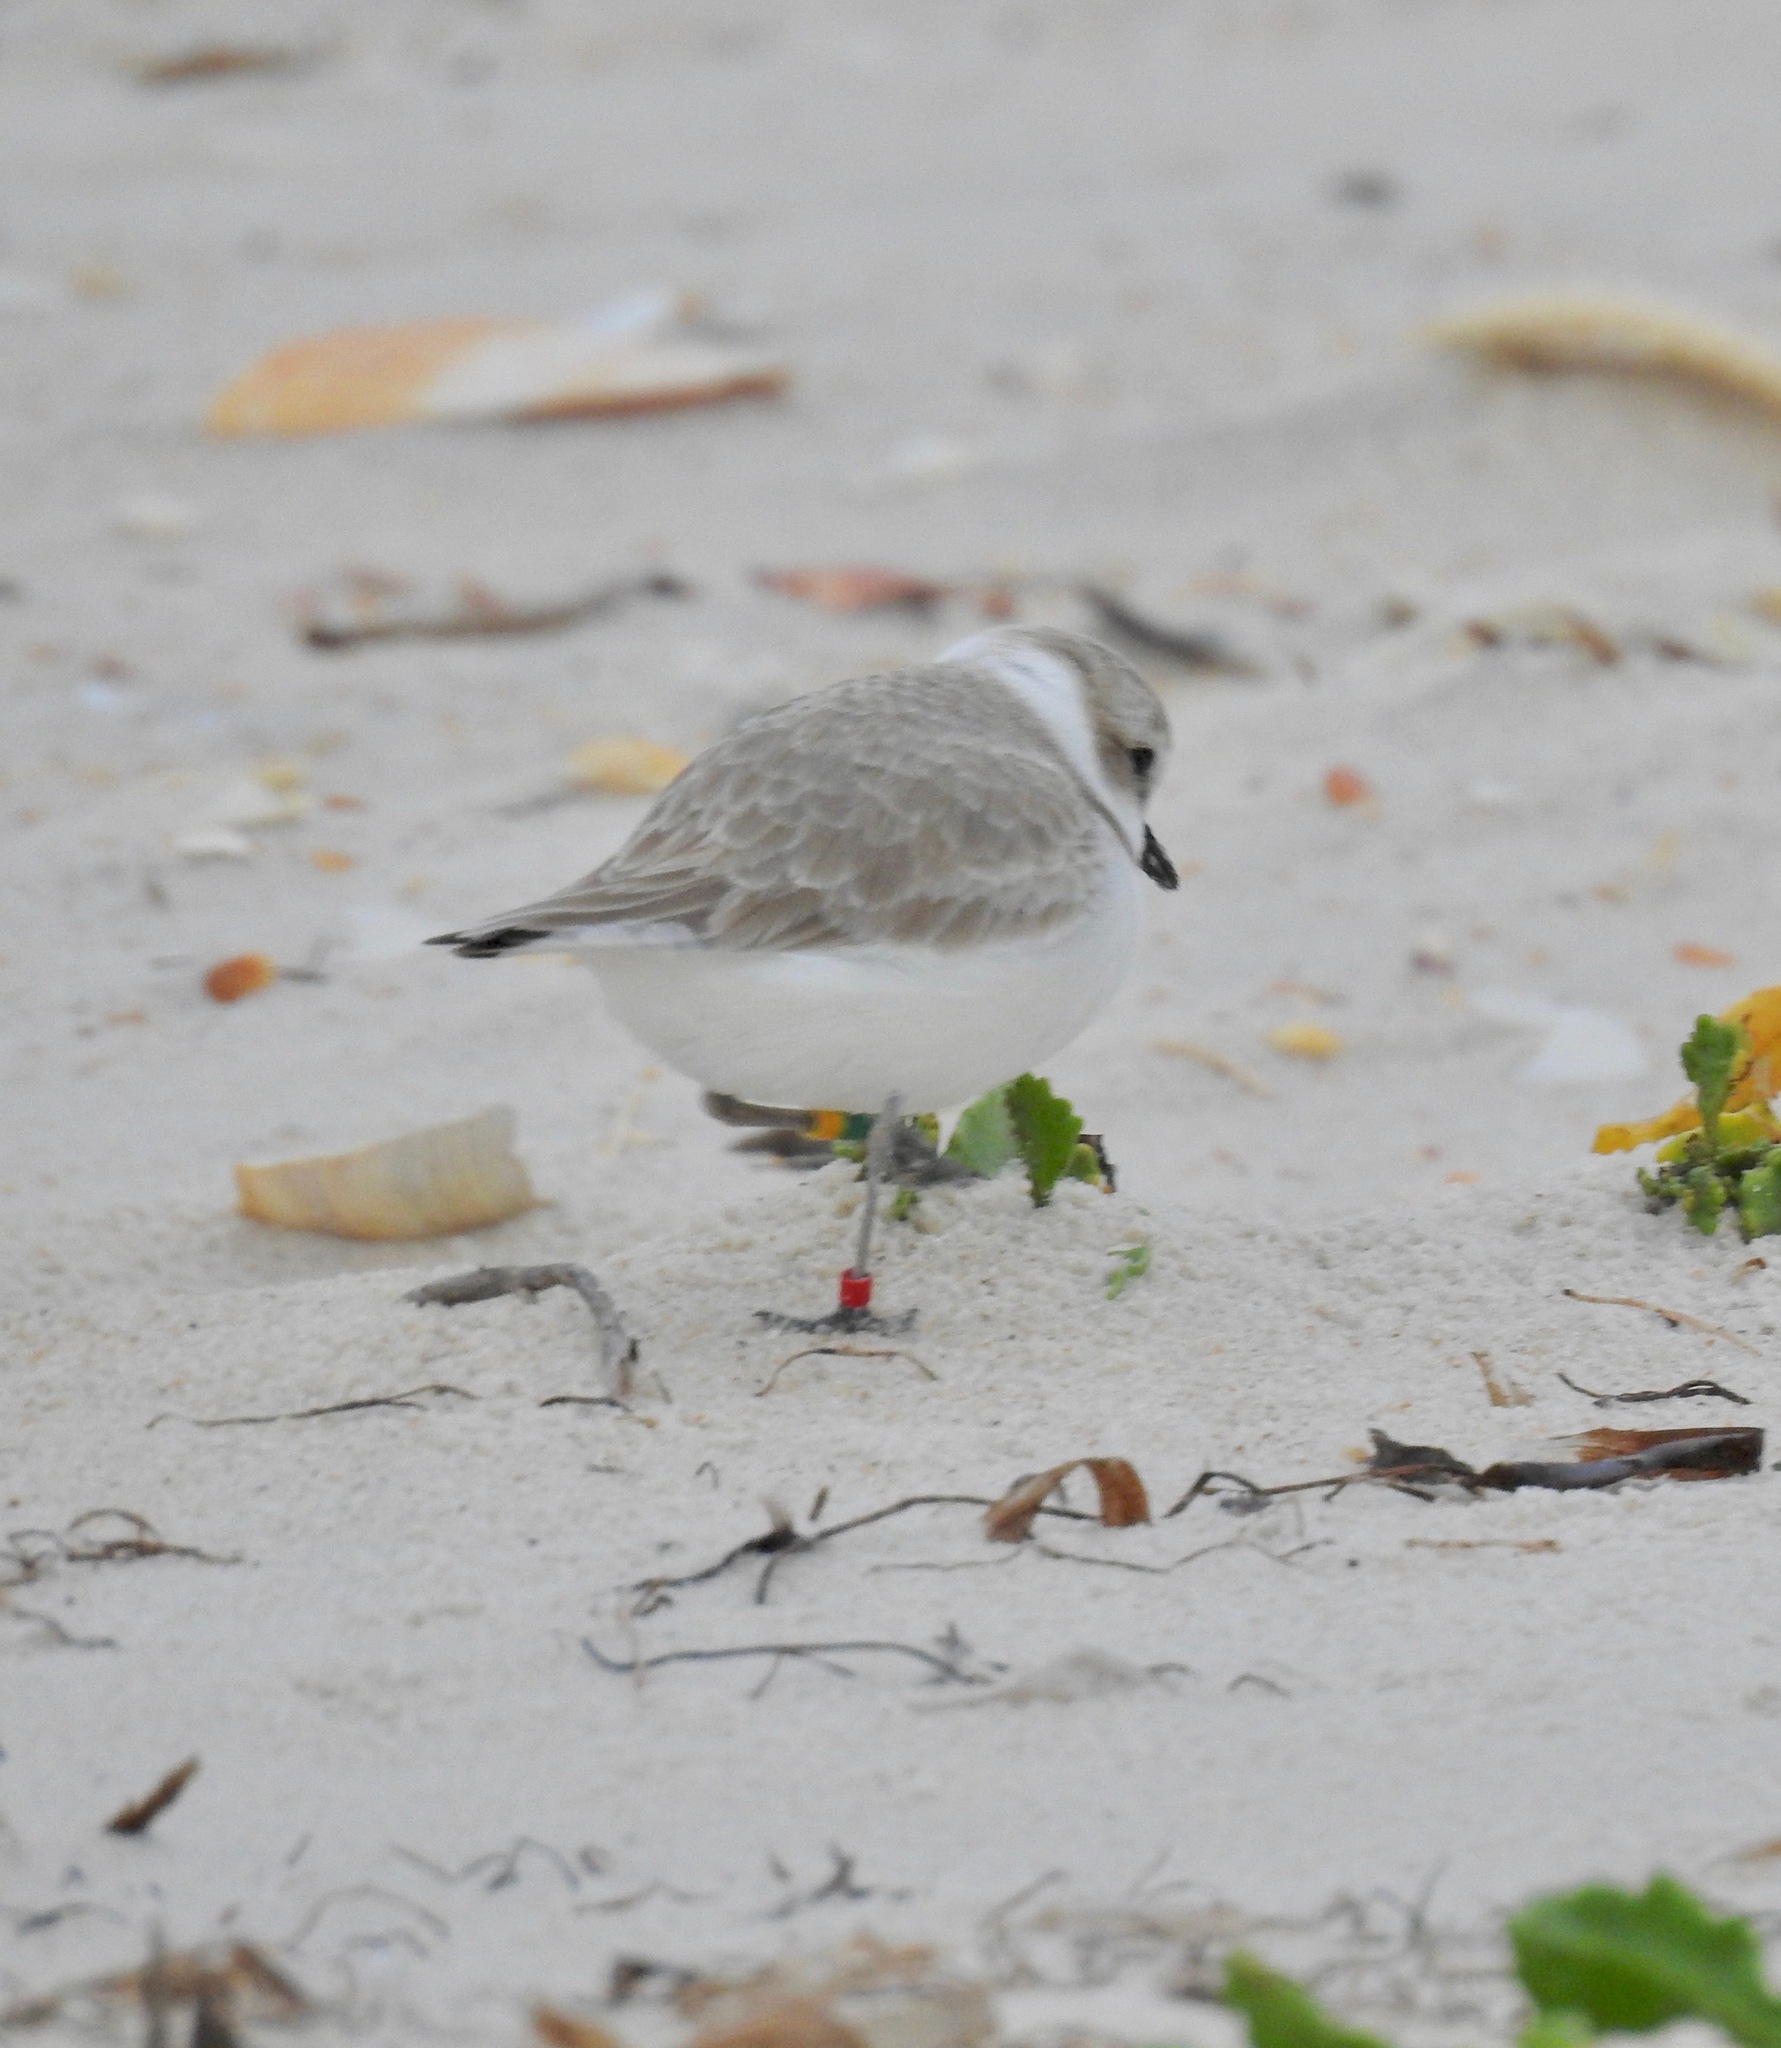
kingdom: Animalia
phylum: Chordata
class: Aves
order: Charadriiformes
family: Charadriidae
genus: Anarhynchus
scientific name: Anarhynchus
